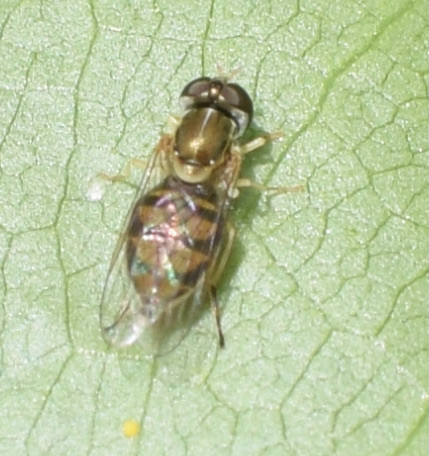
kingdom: Animalia
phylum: Arthropoda
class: Insecta
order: Diptera
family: Syrphidae
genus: Toxomerus
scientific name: Toxomerus marginatus
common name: Syrphid fly
